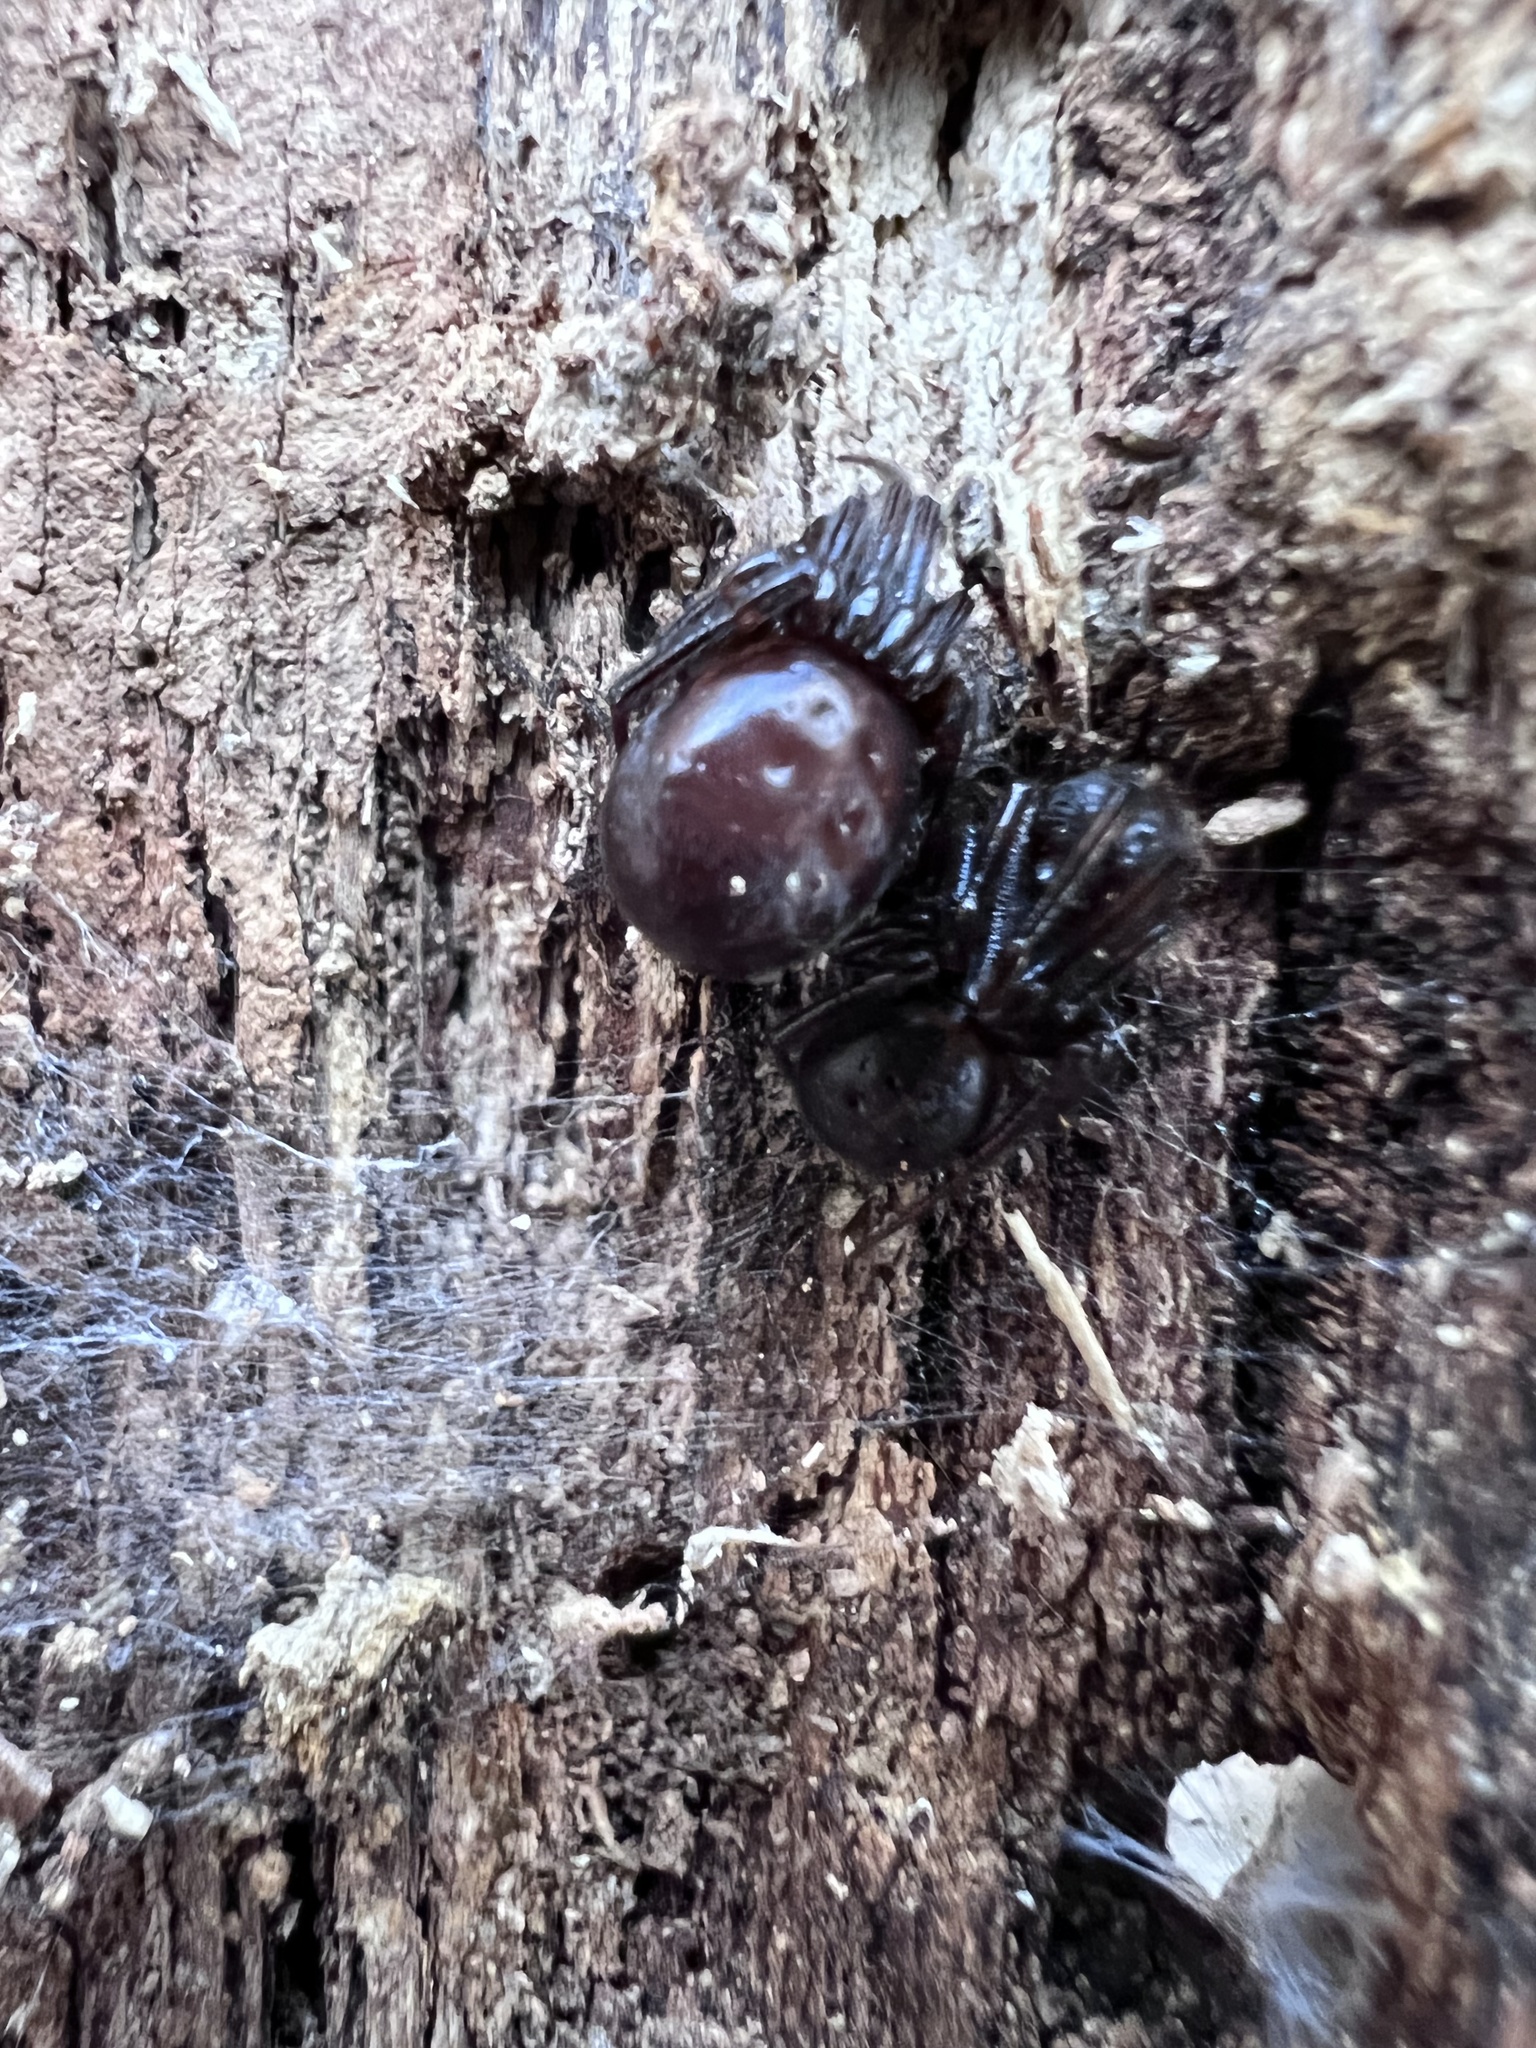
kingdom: Animalia
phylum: Arthropoda
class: Arachnida
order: Araneae
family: Theridiidae
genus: Steatoda
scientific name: Steatoda borealis
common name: Boreal combfoot
